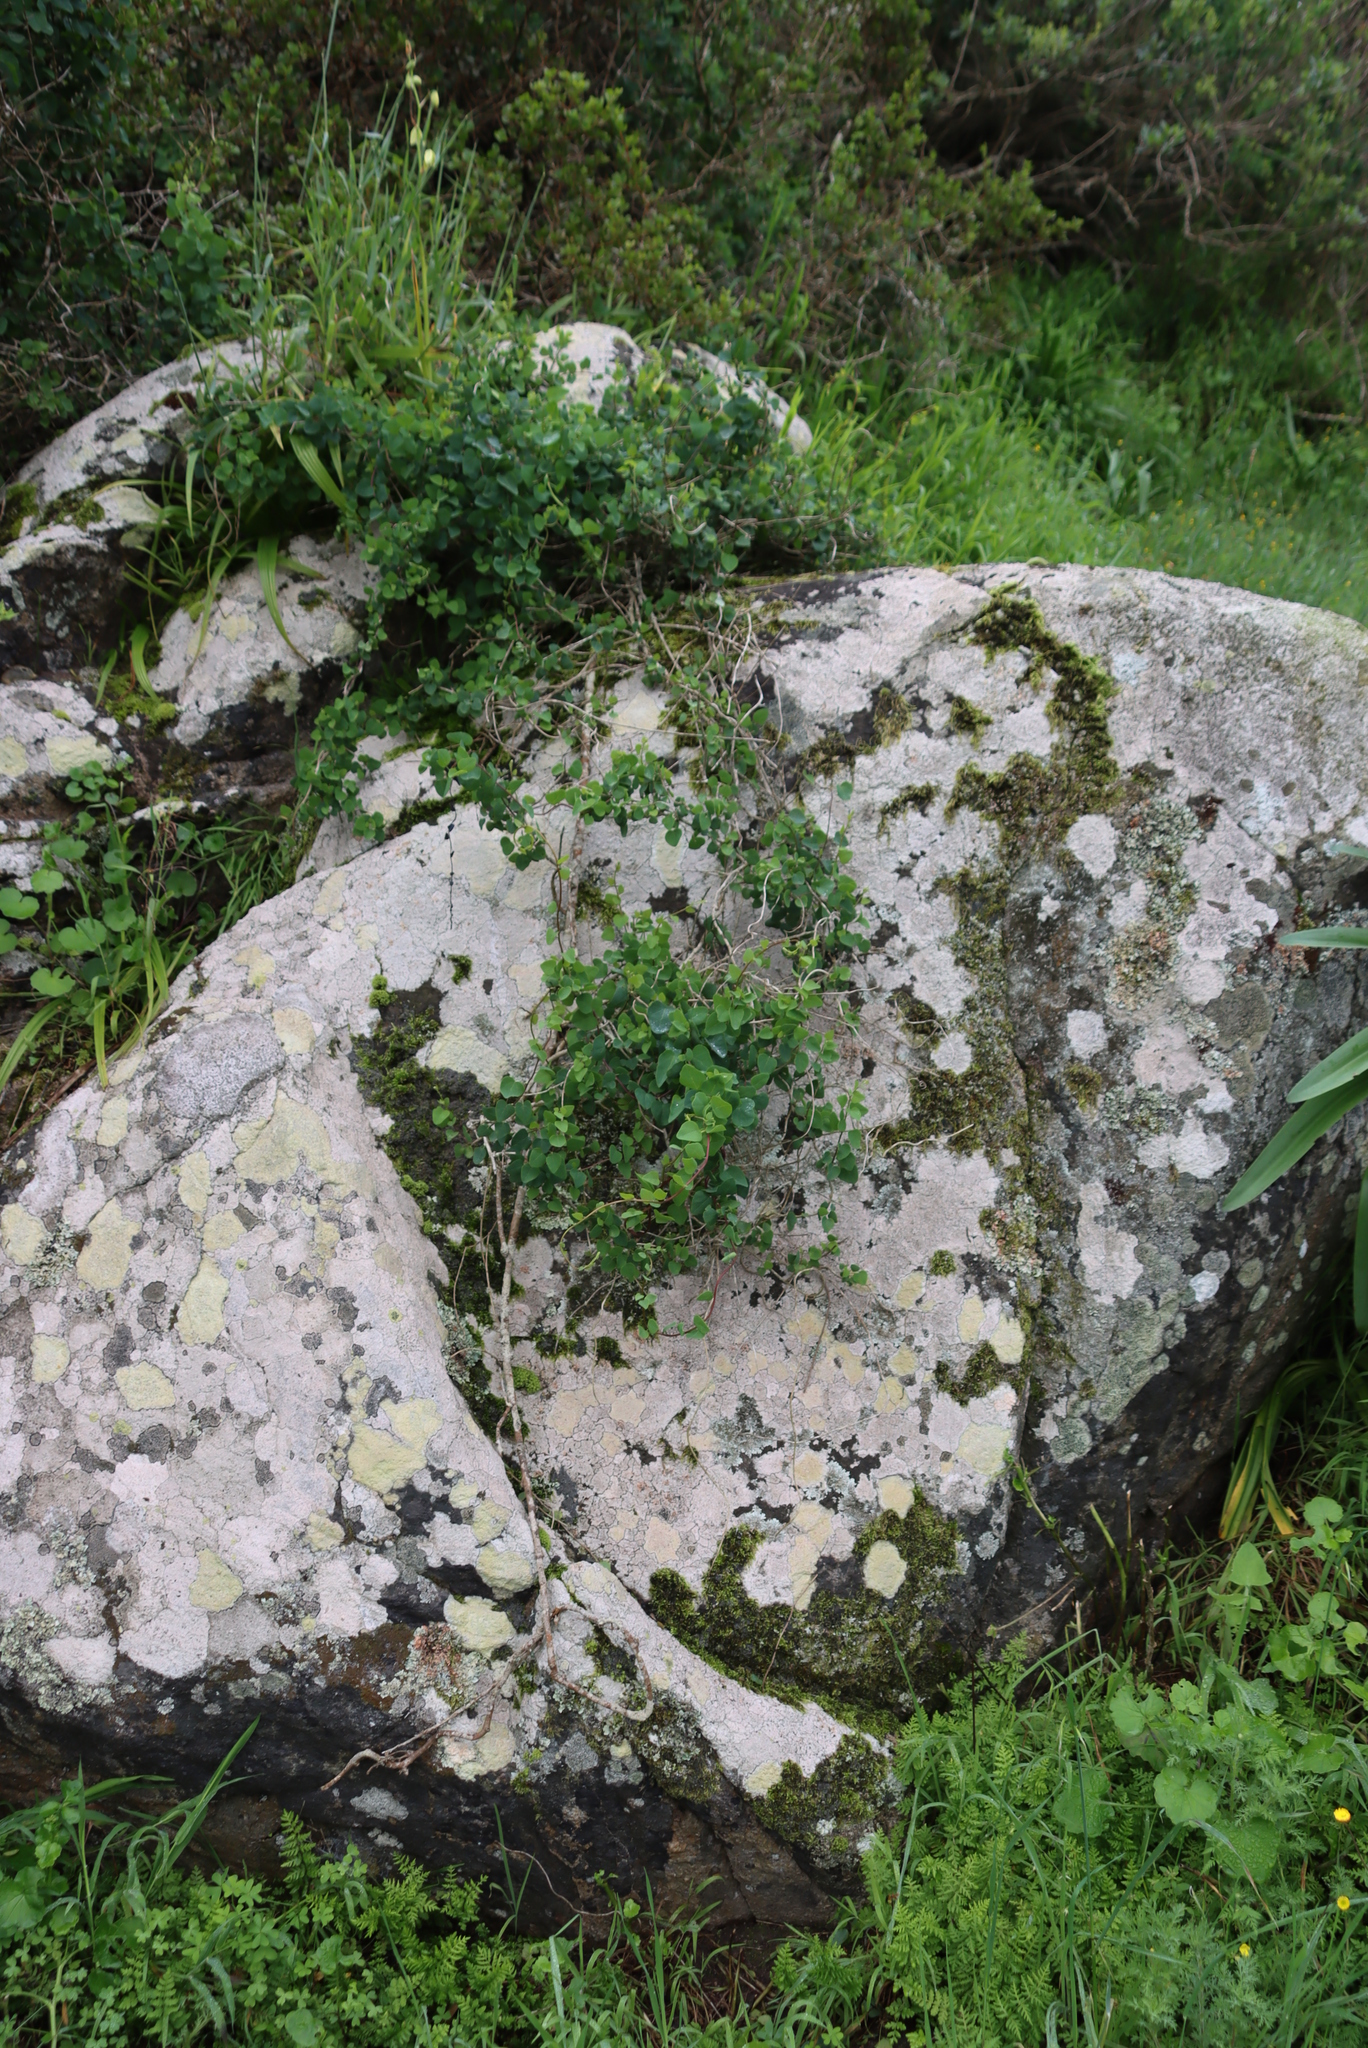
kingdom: Plantae
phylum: Tracheophyta
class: Magnoliopsida
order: Ranunculales
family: Menispermaceae
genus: Cissampelos
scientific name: Cissampelos capensis
